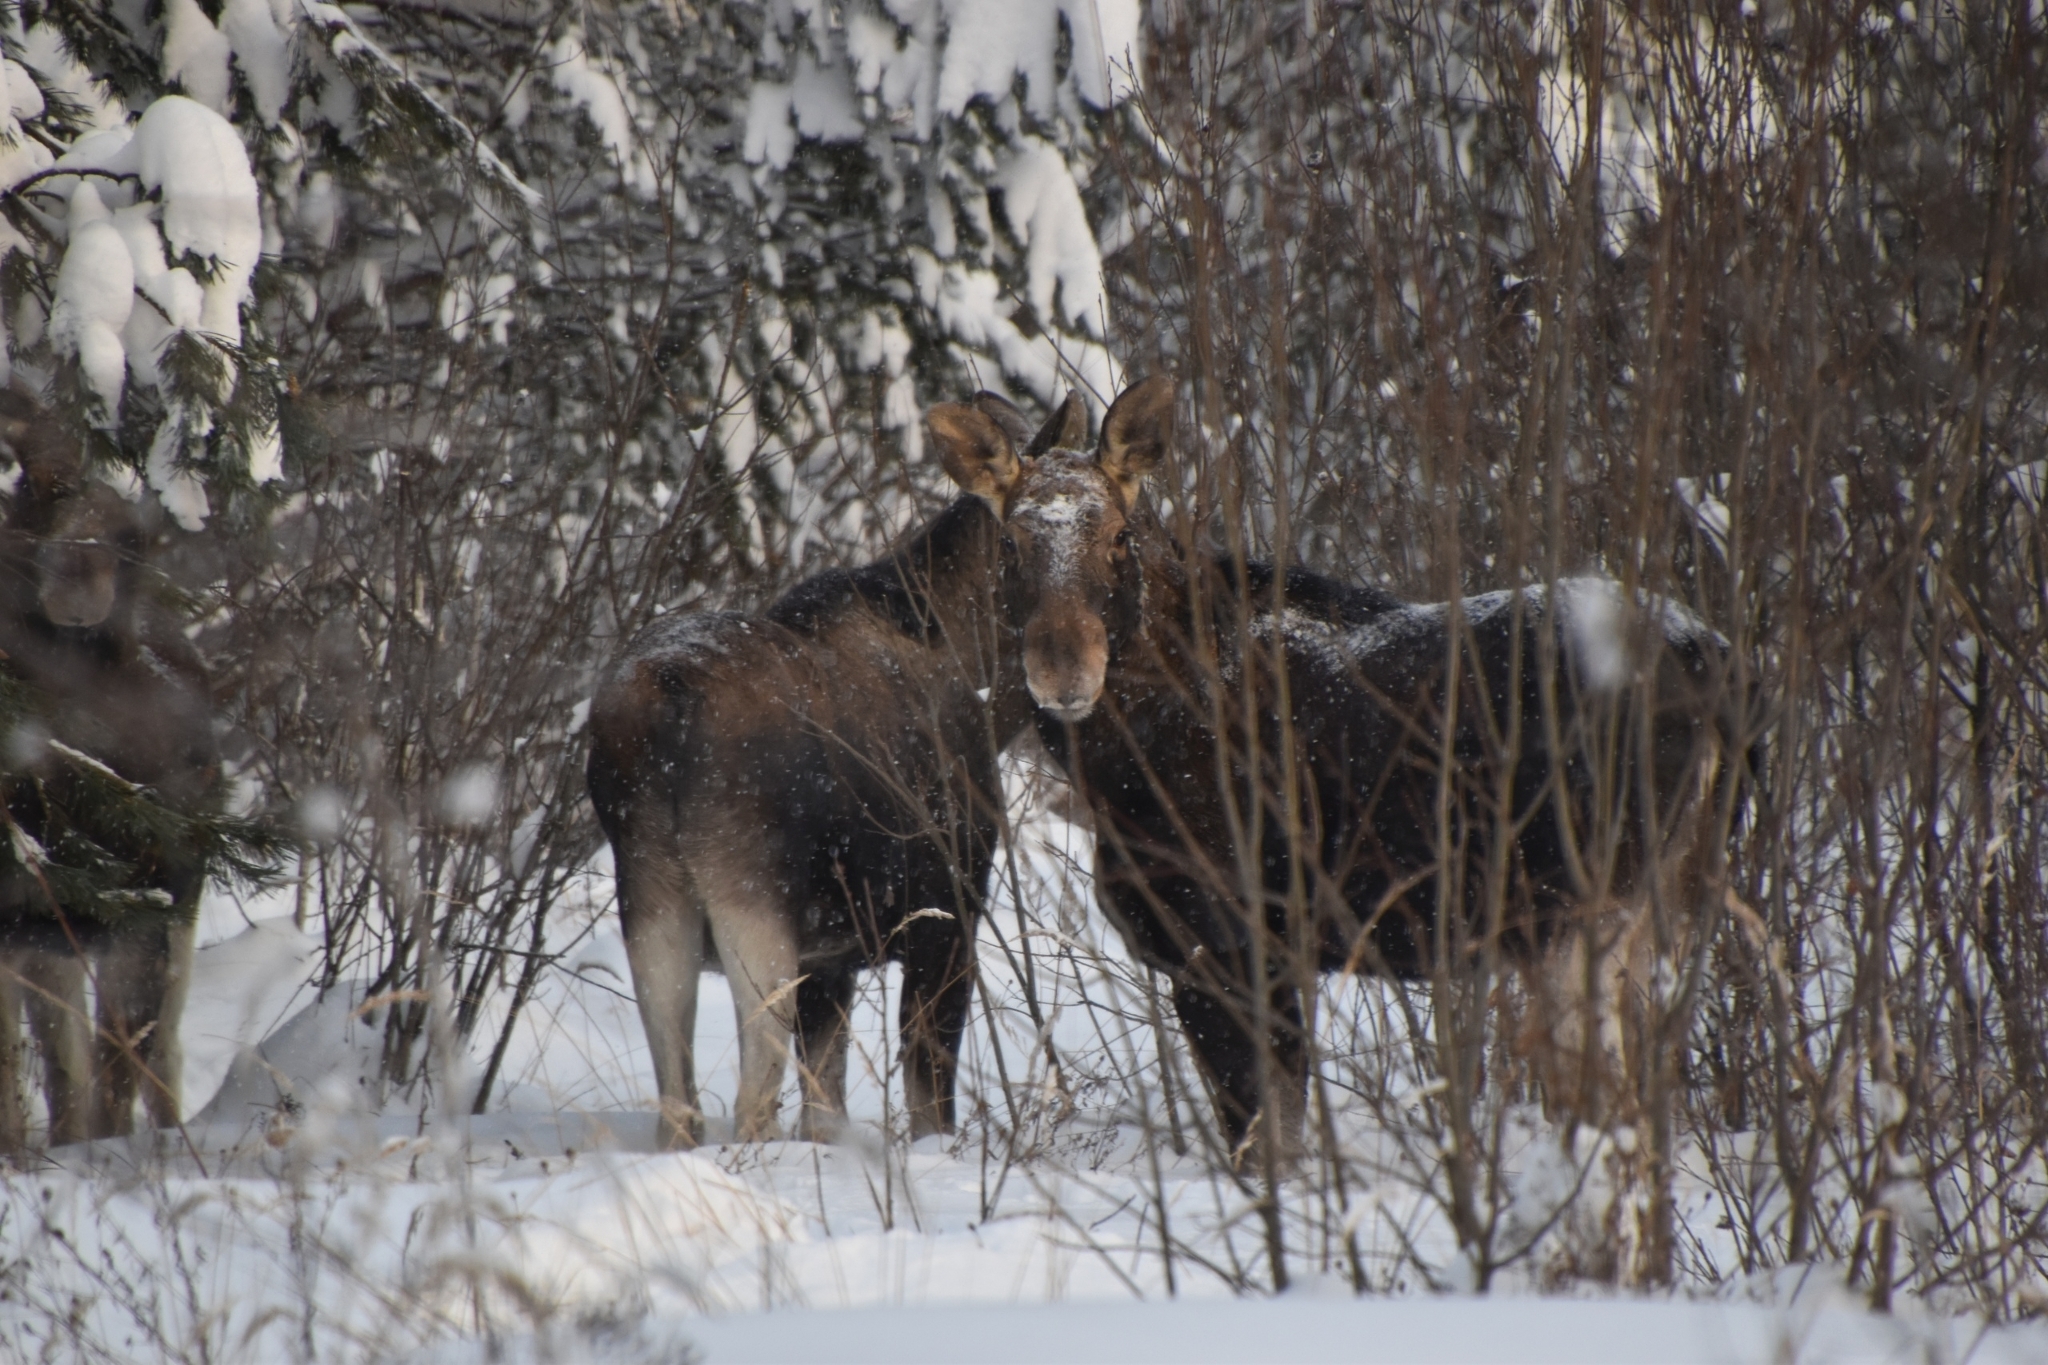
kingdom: Animalia
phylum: Chordata
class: Mammalia
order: Artiodactyla
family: Cervidae
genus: Alces
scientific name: Alces alces
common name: Moose
